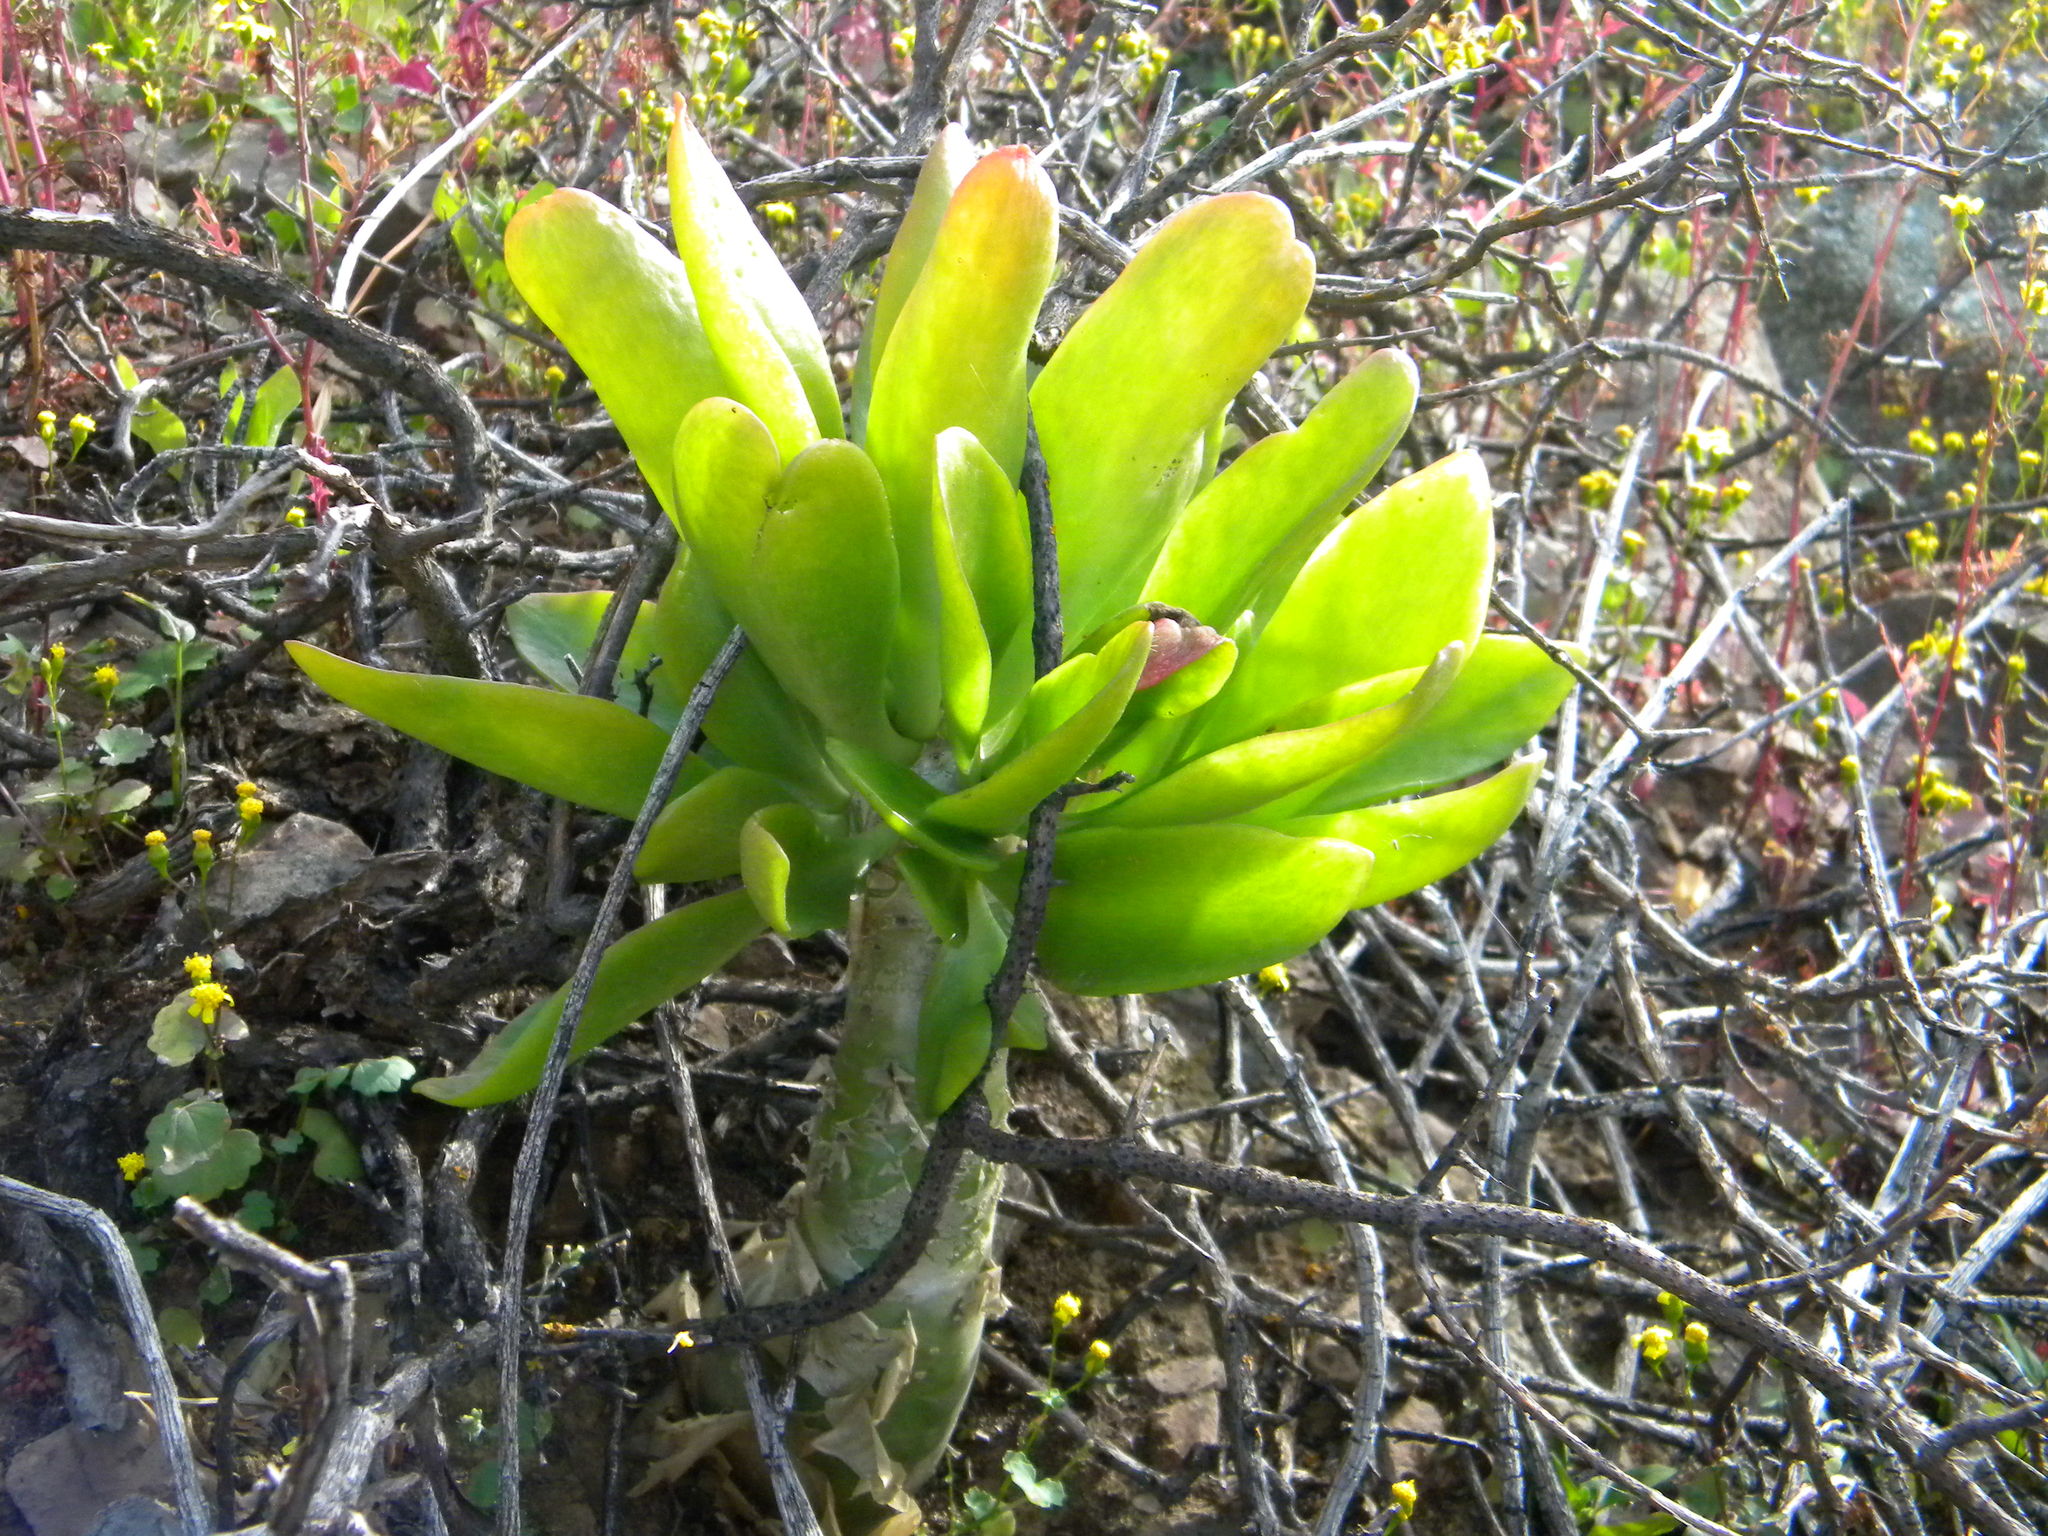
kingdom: Plantae
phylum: Tracheophyta
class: Magnoliopsida
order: Saxifragales
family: Crassulaceae
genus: Tylecodon
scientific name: Tylecodon paniculatus
